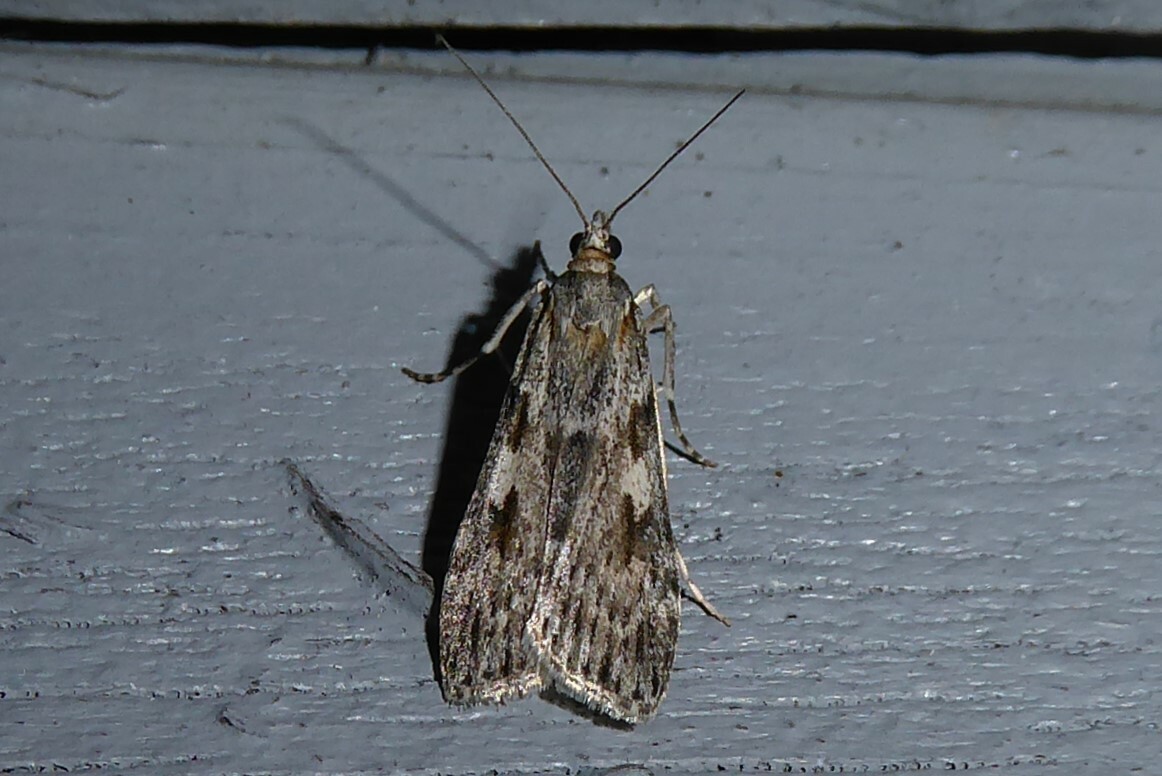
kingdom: Animalia
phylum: Arthropoda
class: Insecta
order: Lepidoptera
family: Crambidae
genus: Scoparia
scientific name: Scoparia halopis
